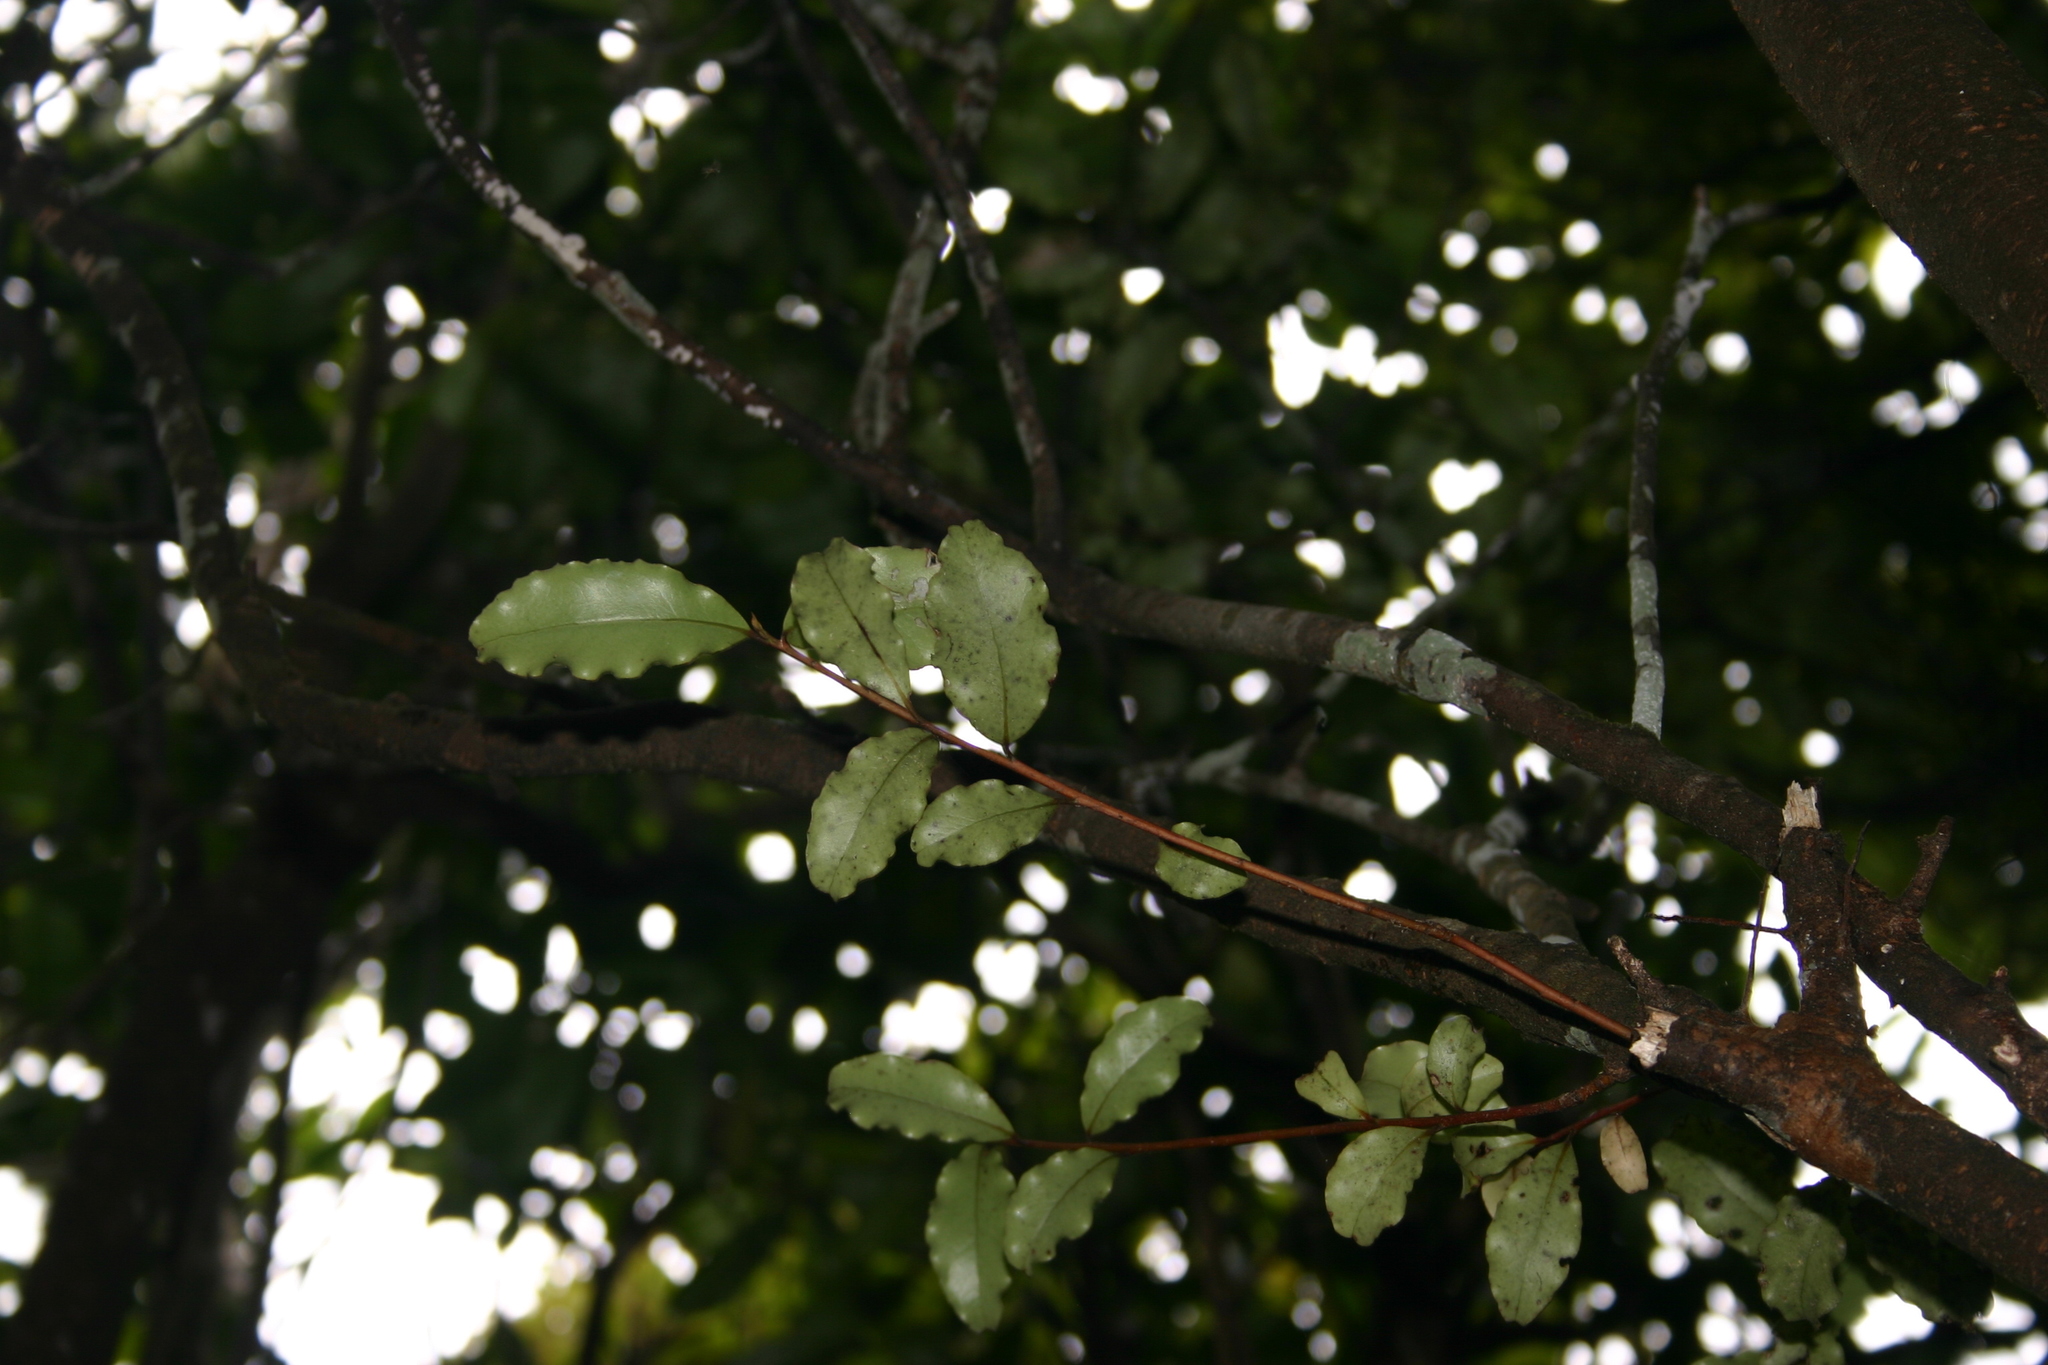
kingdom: Plantae
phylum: Tracheophyta
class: Magnoliopsida
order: Ericales
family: Primulaceae
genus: Myrsine
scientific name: Myrsine australis
